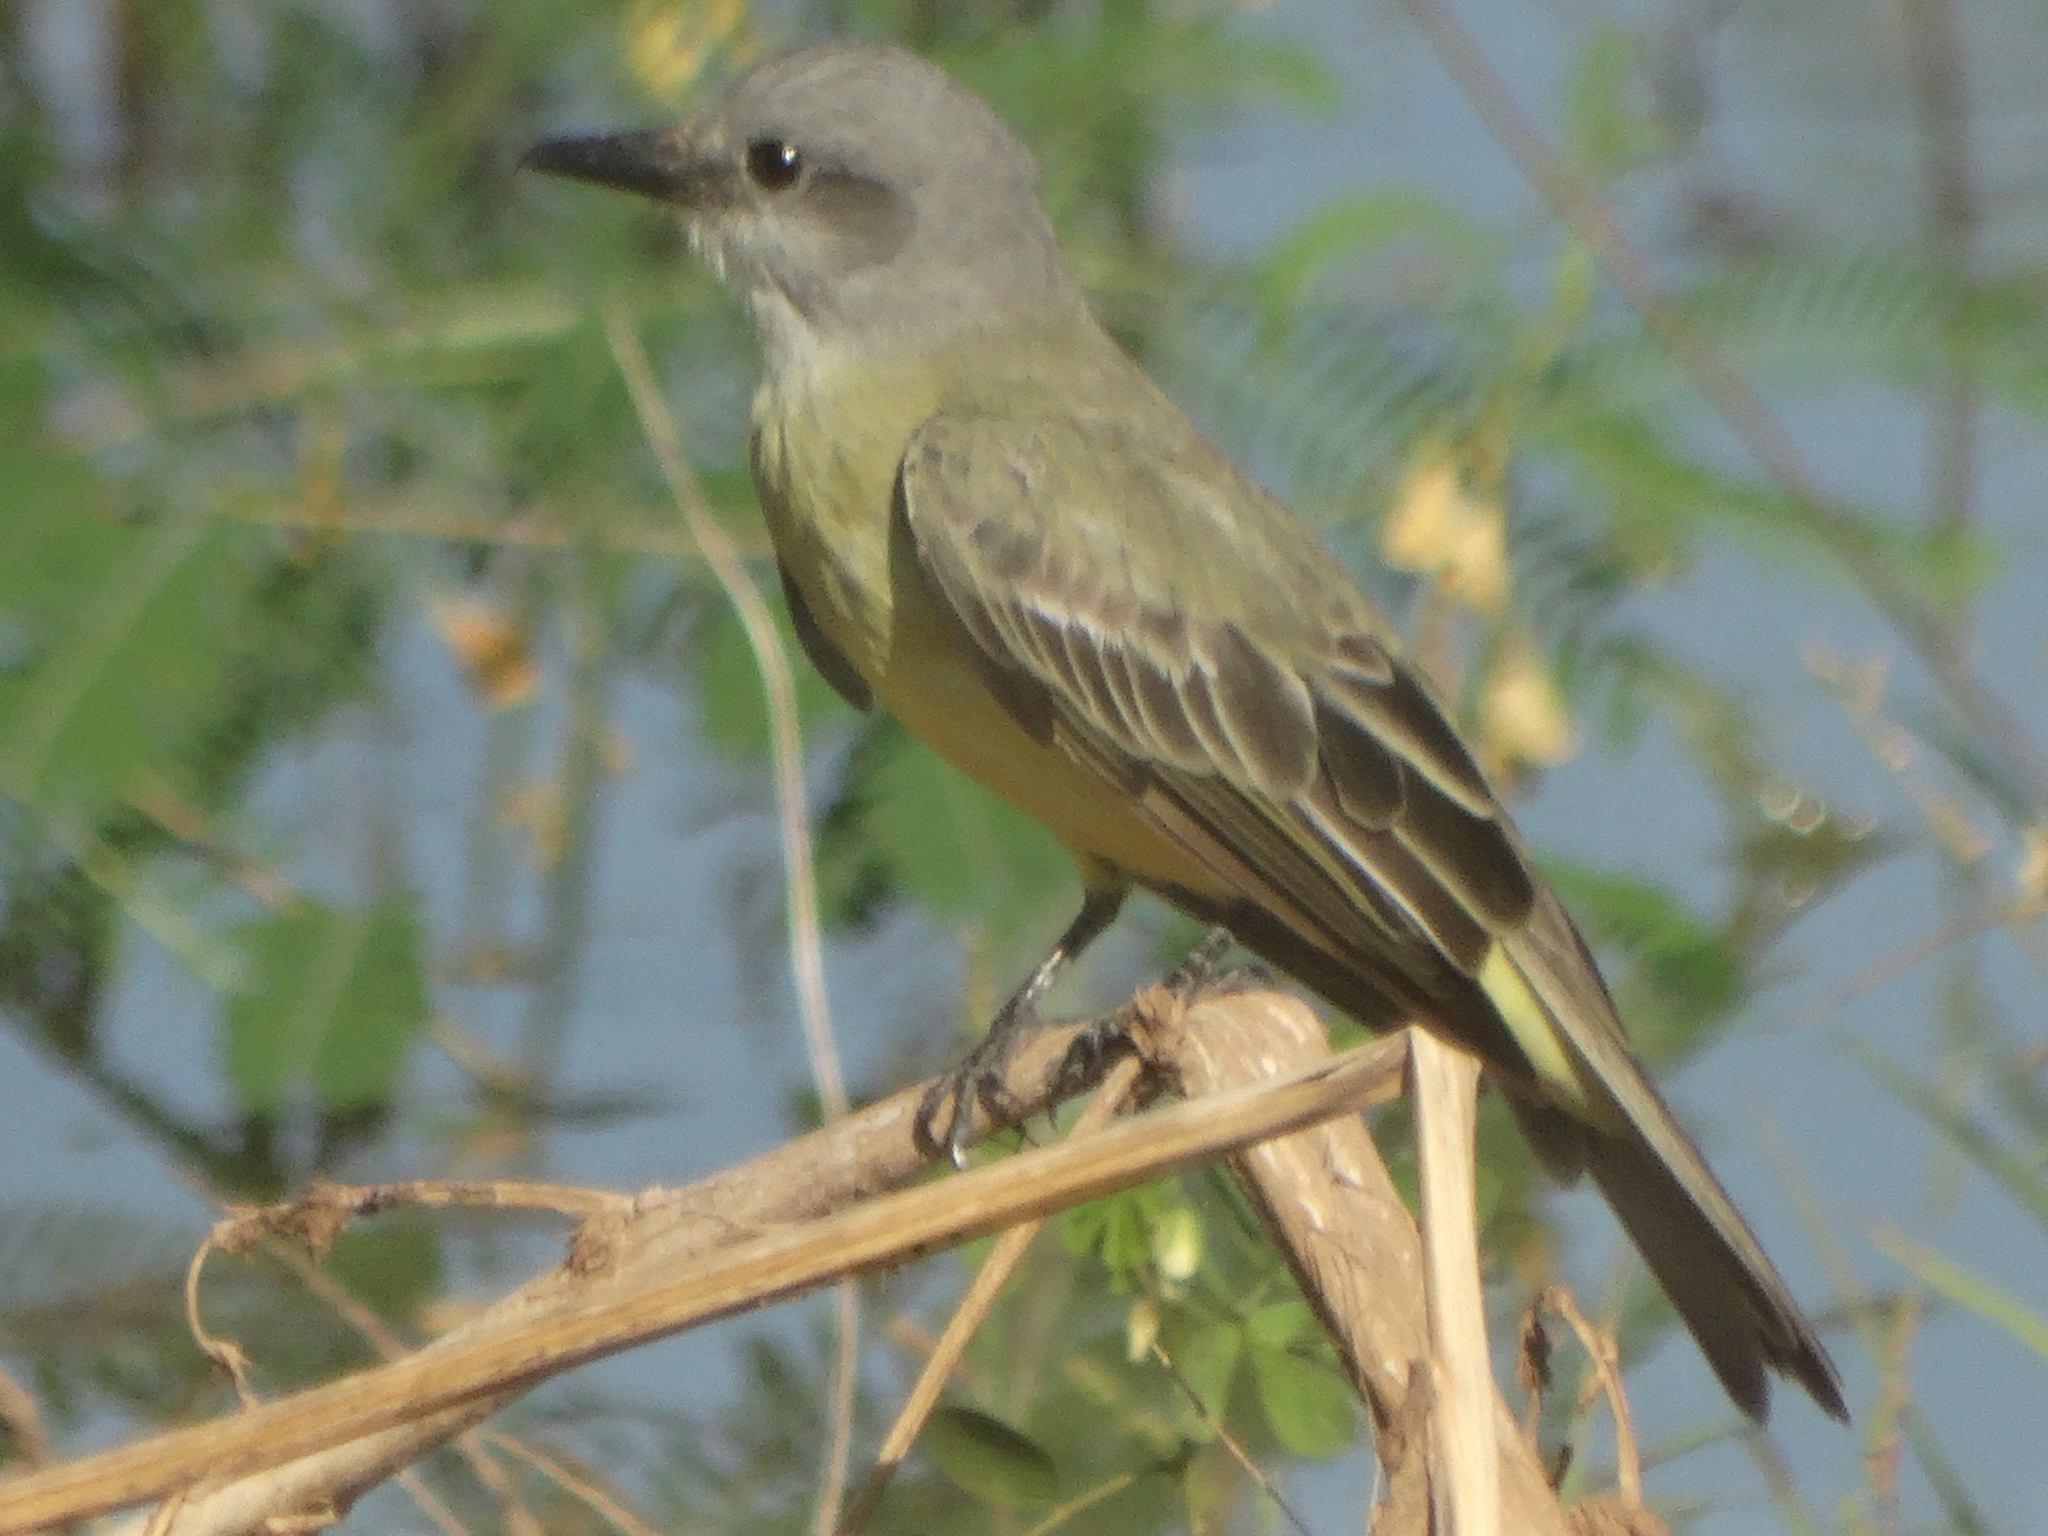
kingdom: Animalia
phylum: Chordata
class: Aves
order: Passeriformes
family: Tyrannidae
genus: Tyrannus
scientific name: Tyrannus melancholicus
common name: Tropical kingbird
